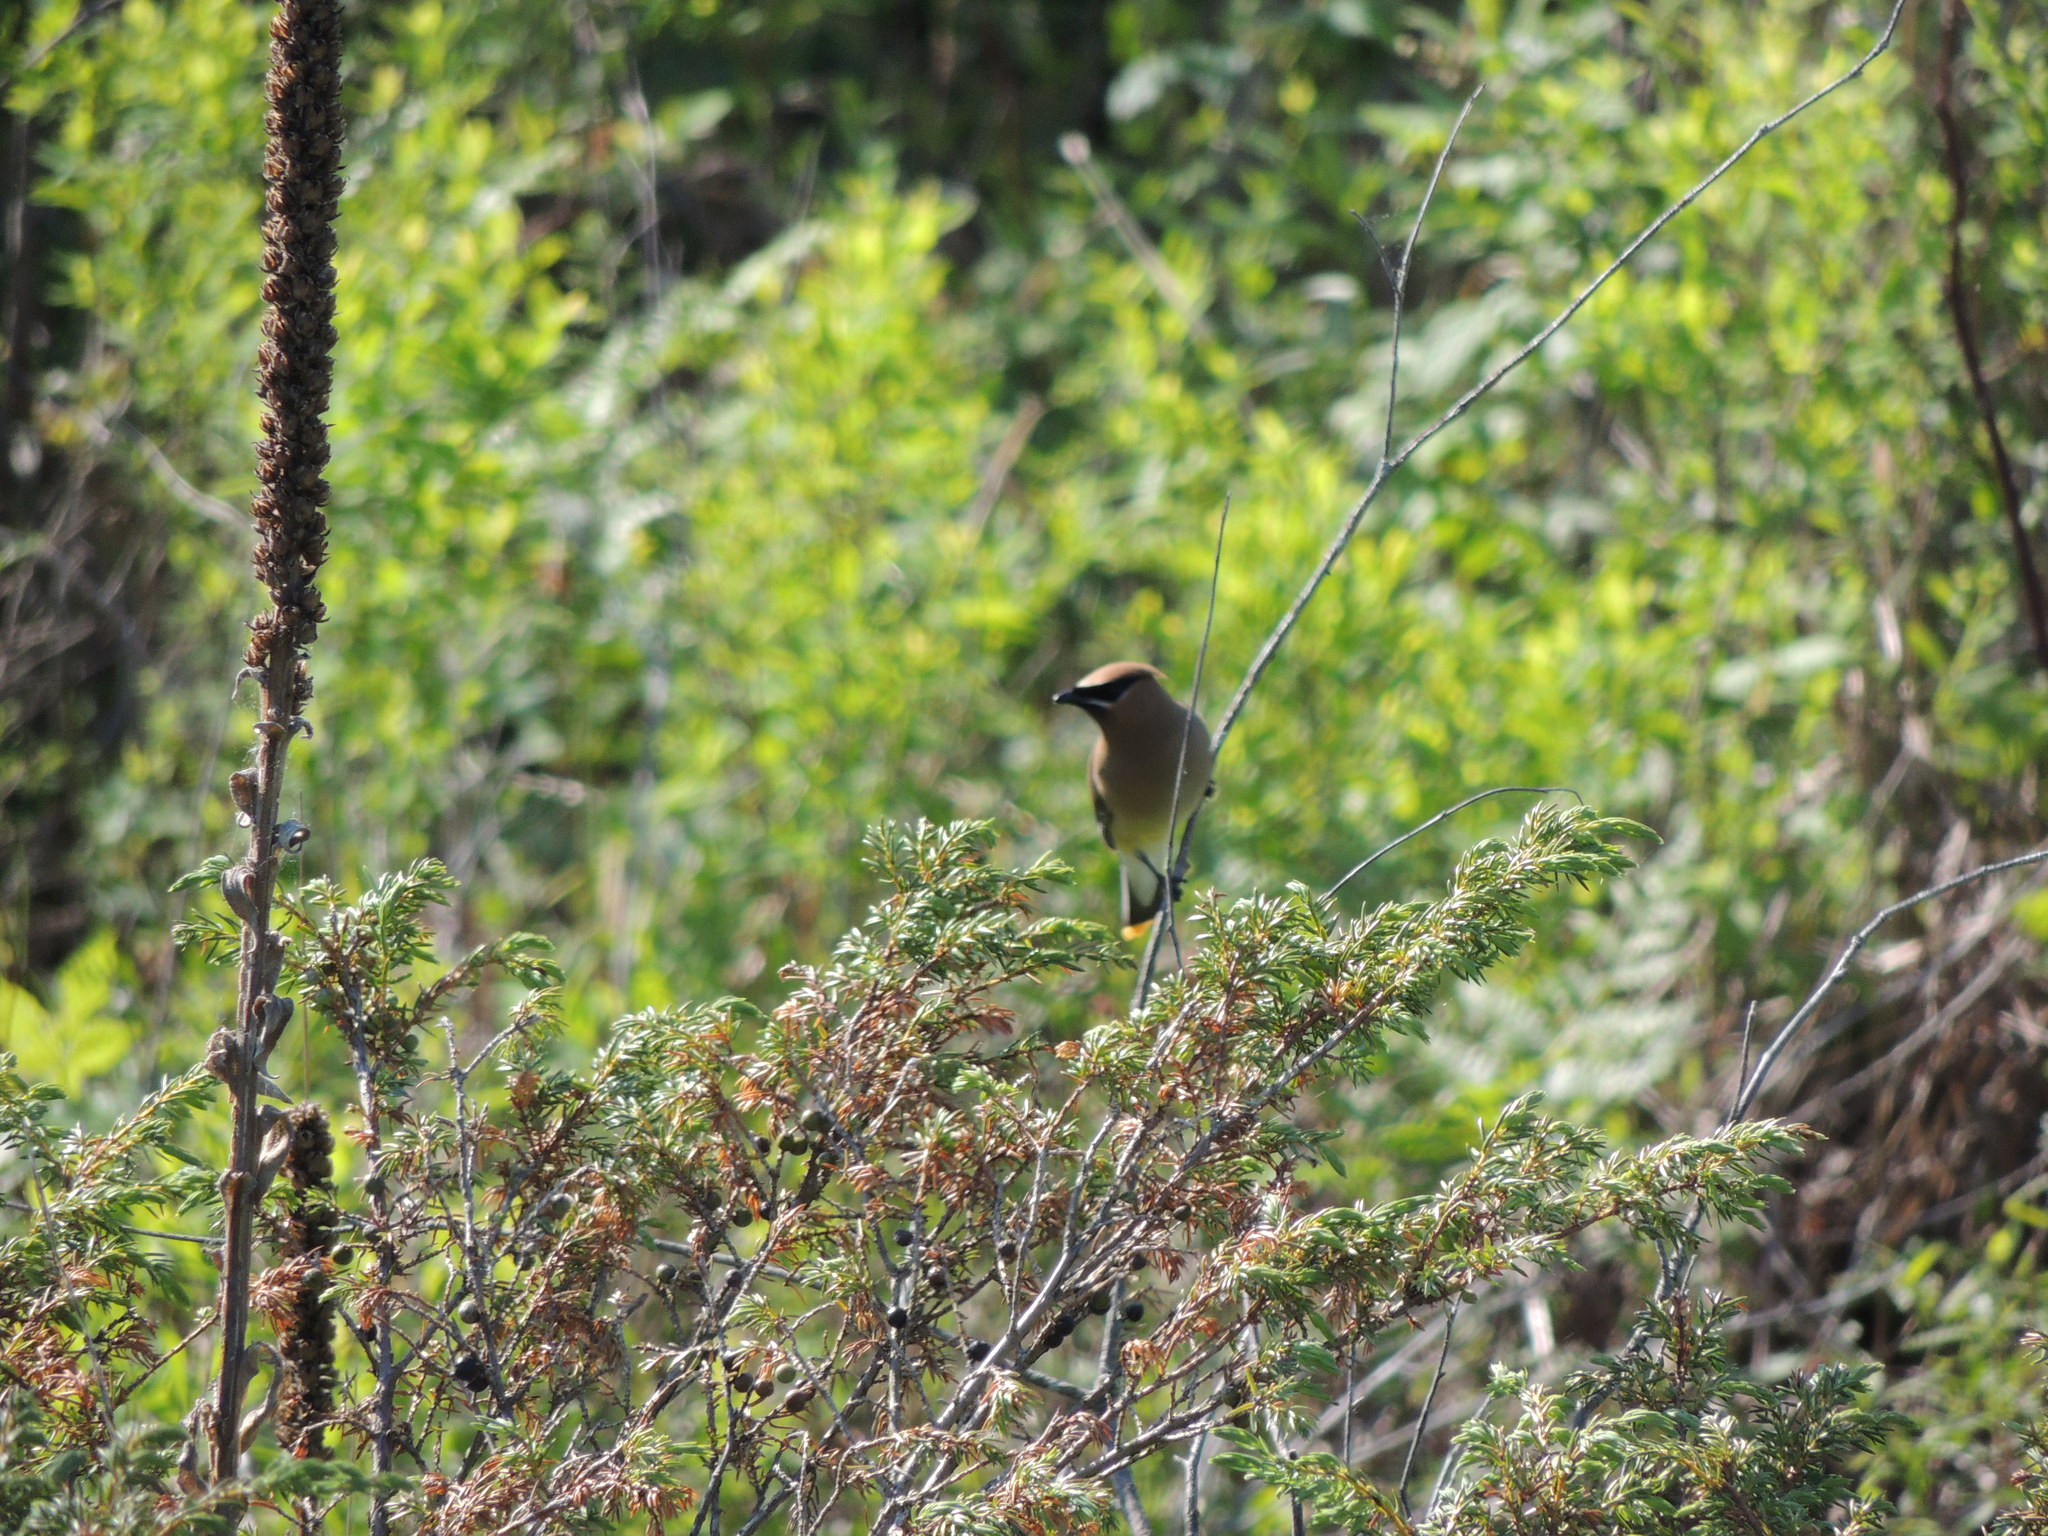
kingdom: Animalia
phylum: Chordata
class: Aves
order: Passeriformes
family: Bombycillidae
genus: Bombycilla
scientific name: Bombycilla cedrorum
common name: Cedar waxwing
